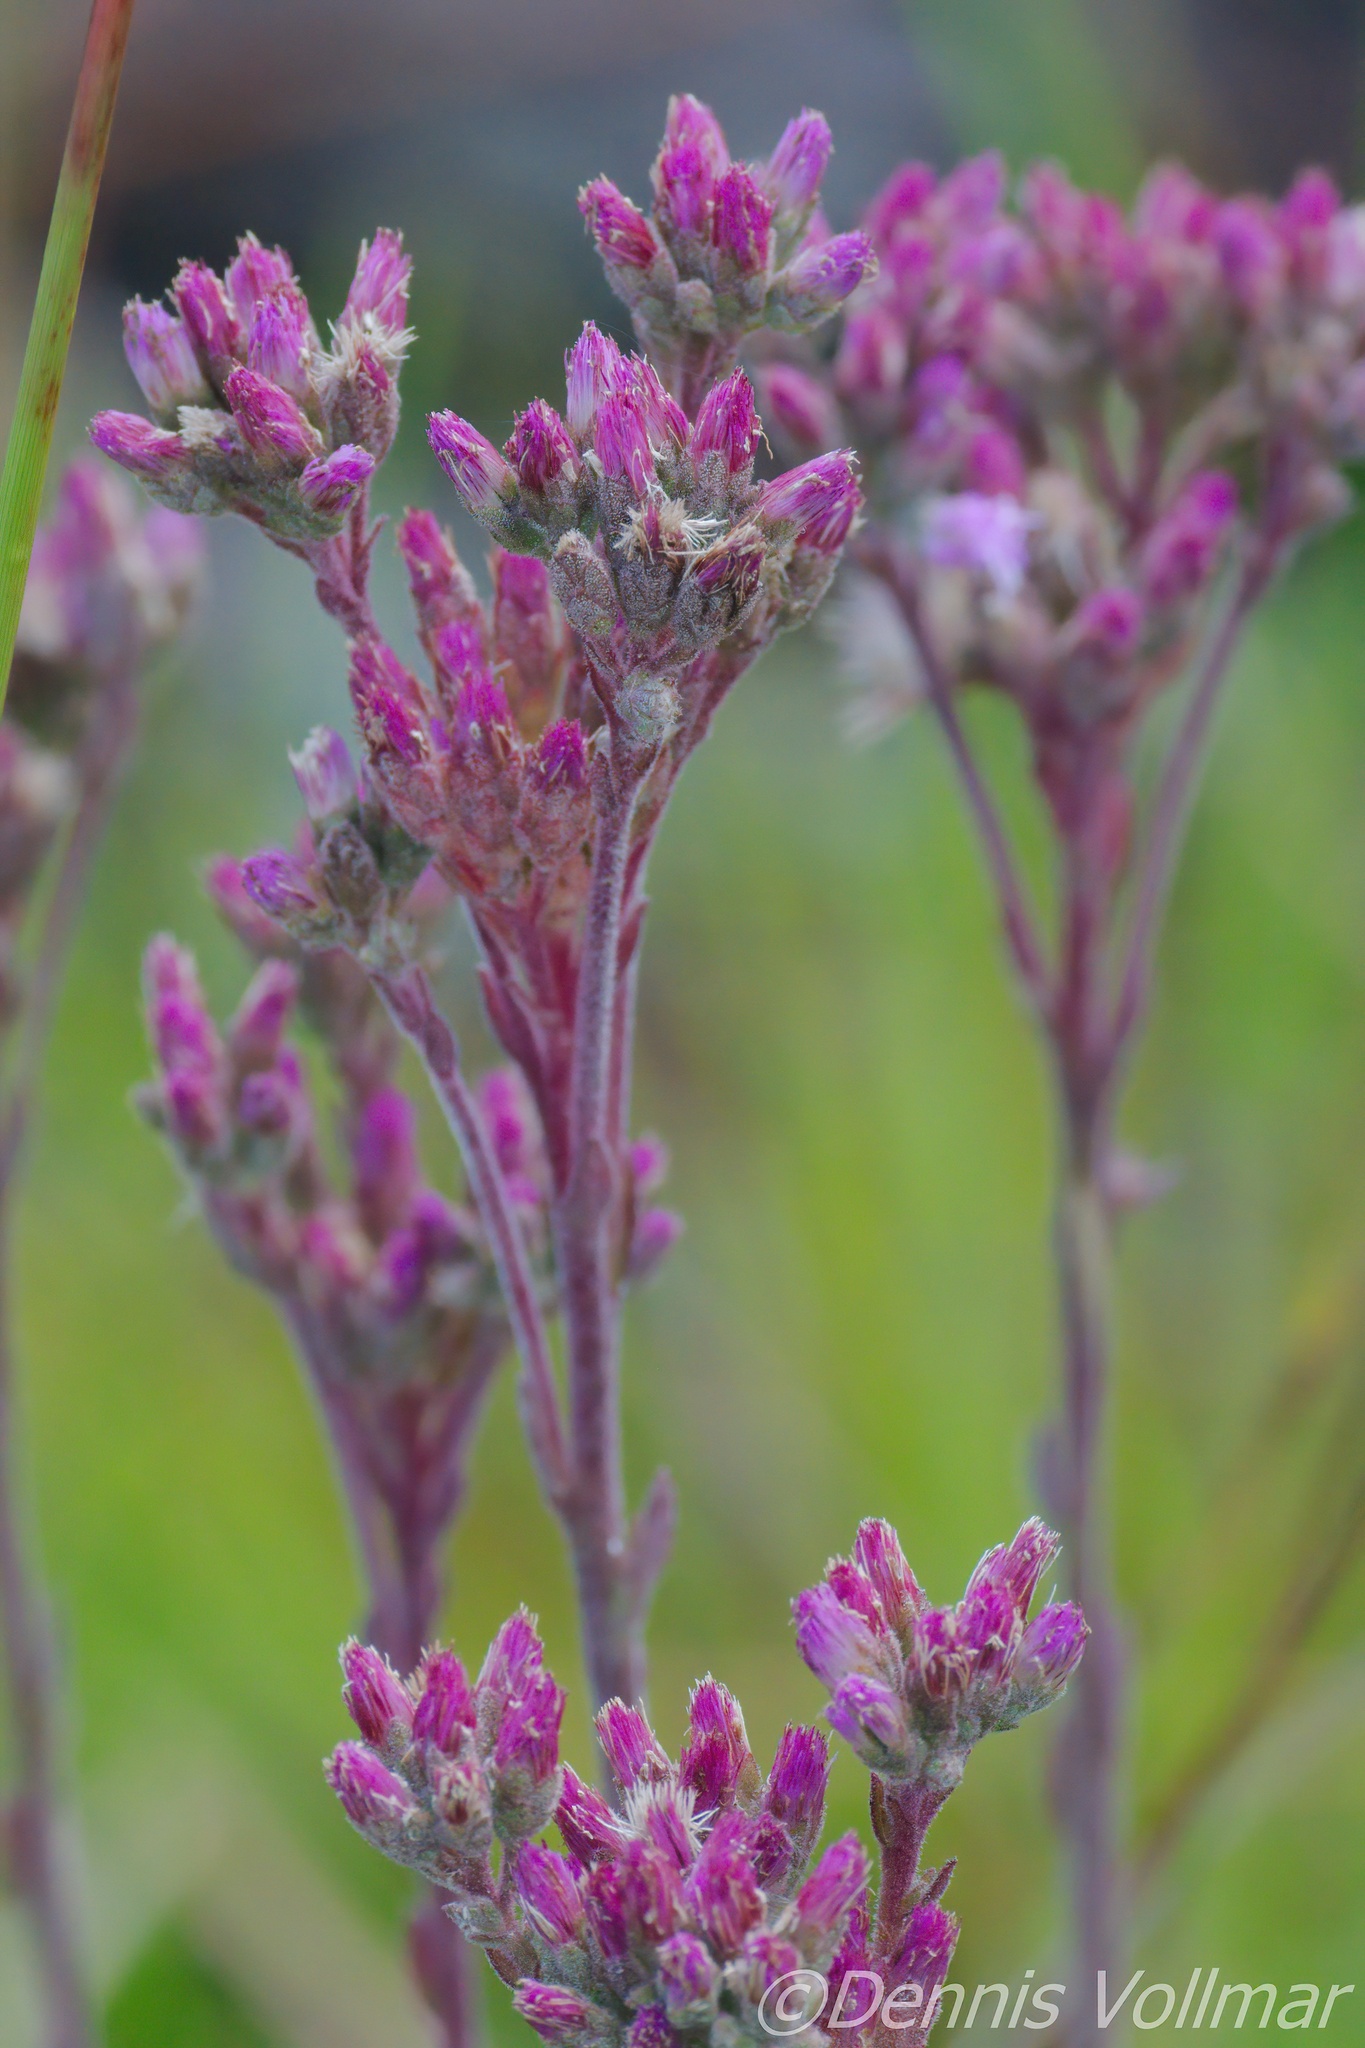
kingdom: Plantae
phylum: Tracheophyta
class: Magnoliopsida
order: Asterales
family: Asteraceae
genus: Carphephorus
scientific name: Carphephorus carnosus
